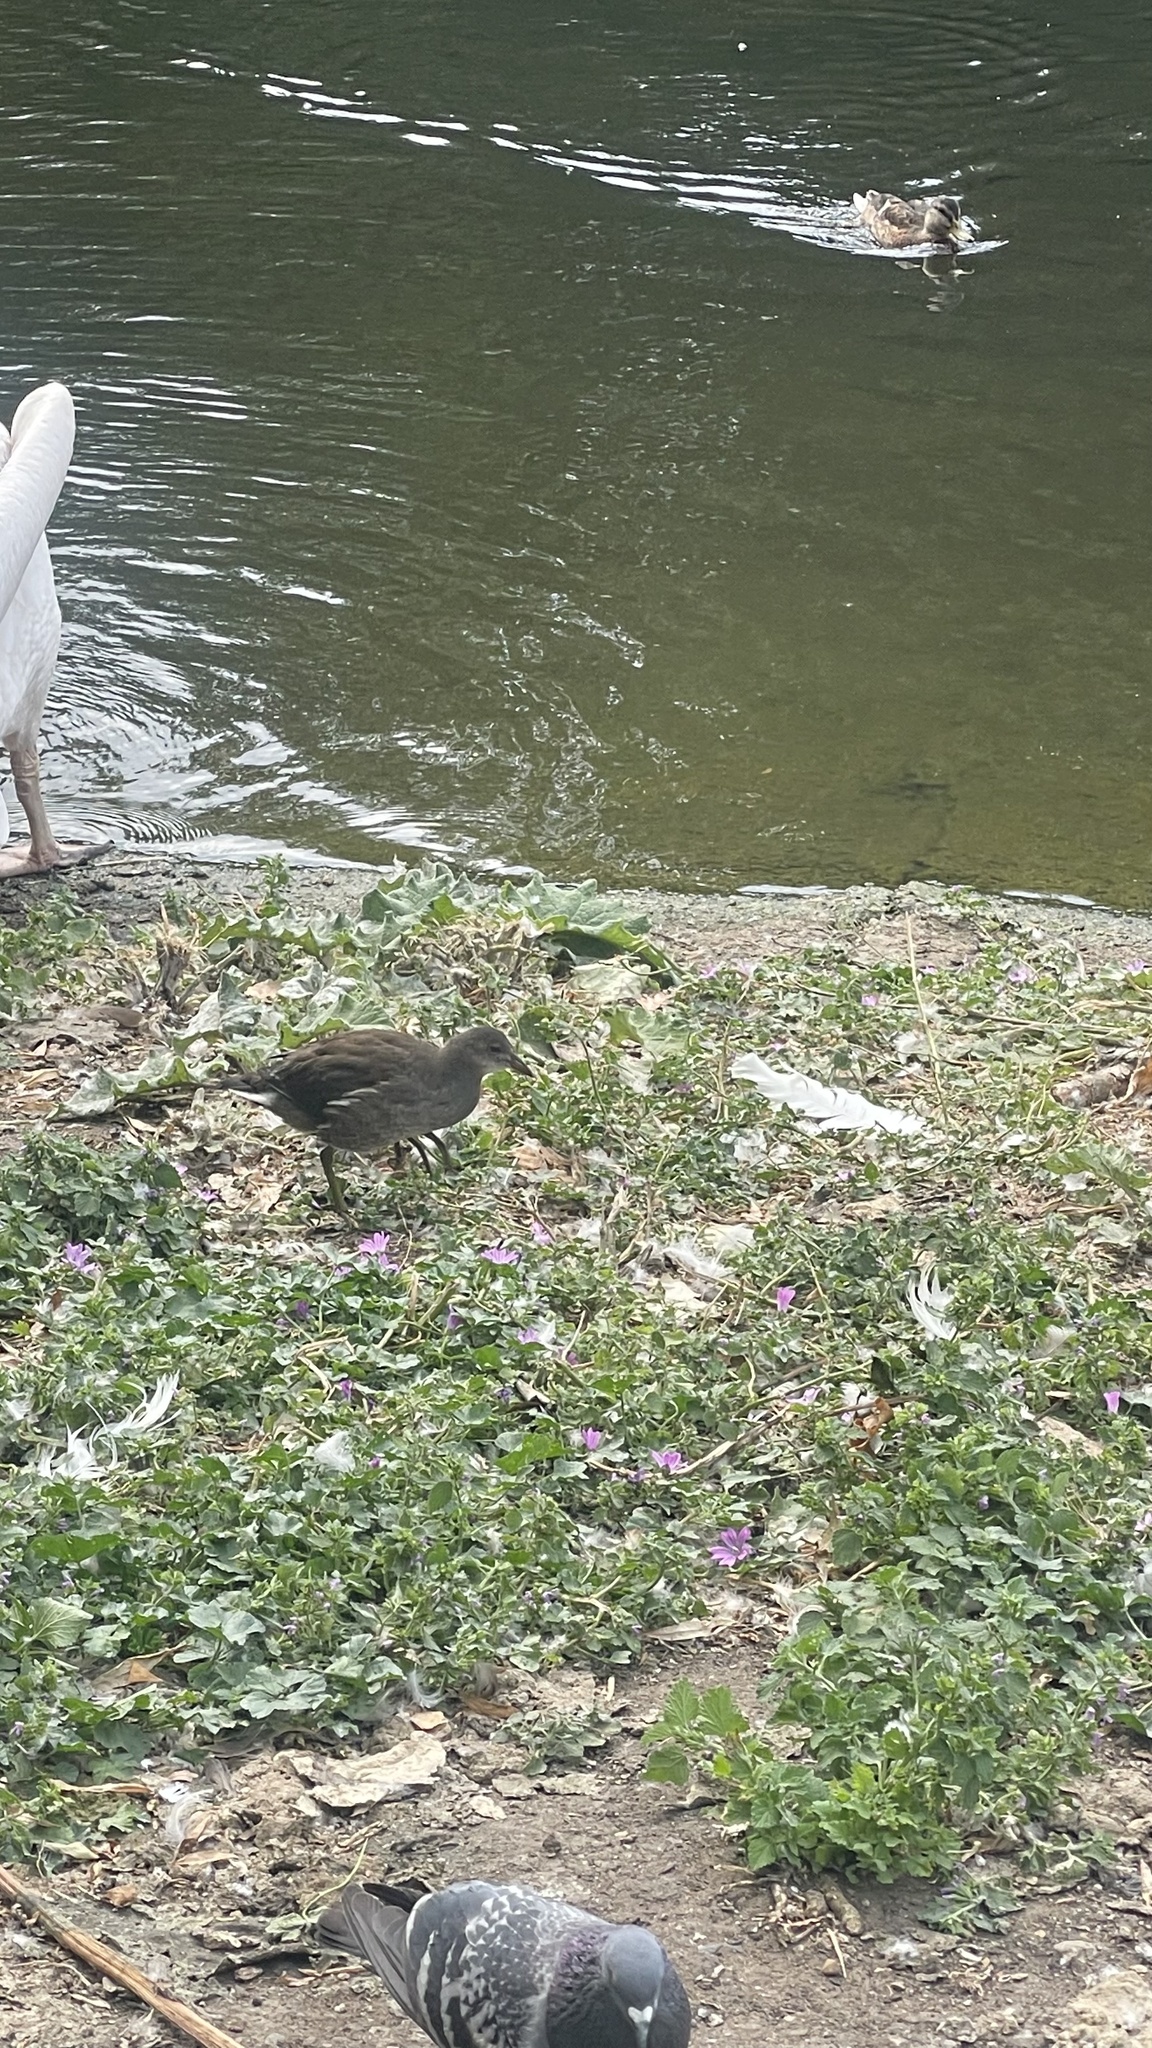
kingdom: Animalia
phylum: Chordata
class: Aves
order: Gruiformes
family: Rallidae
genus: Gallinula
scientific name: Gallinula chloropus
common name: Common moorhen
